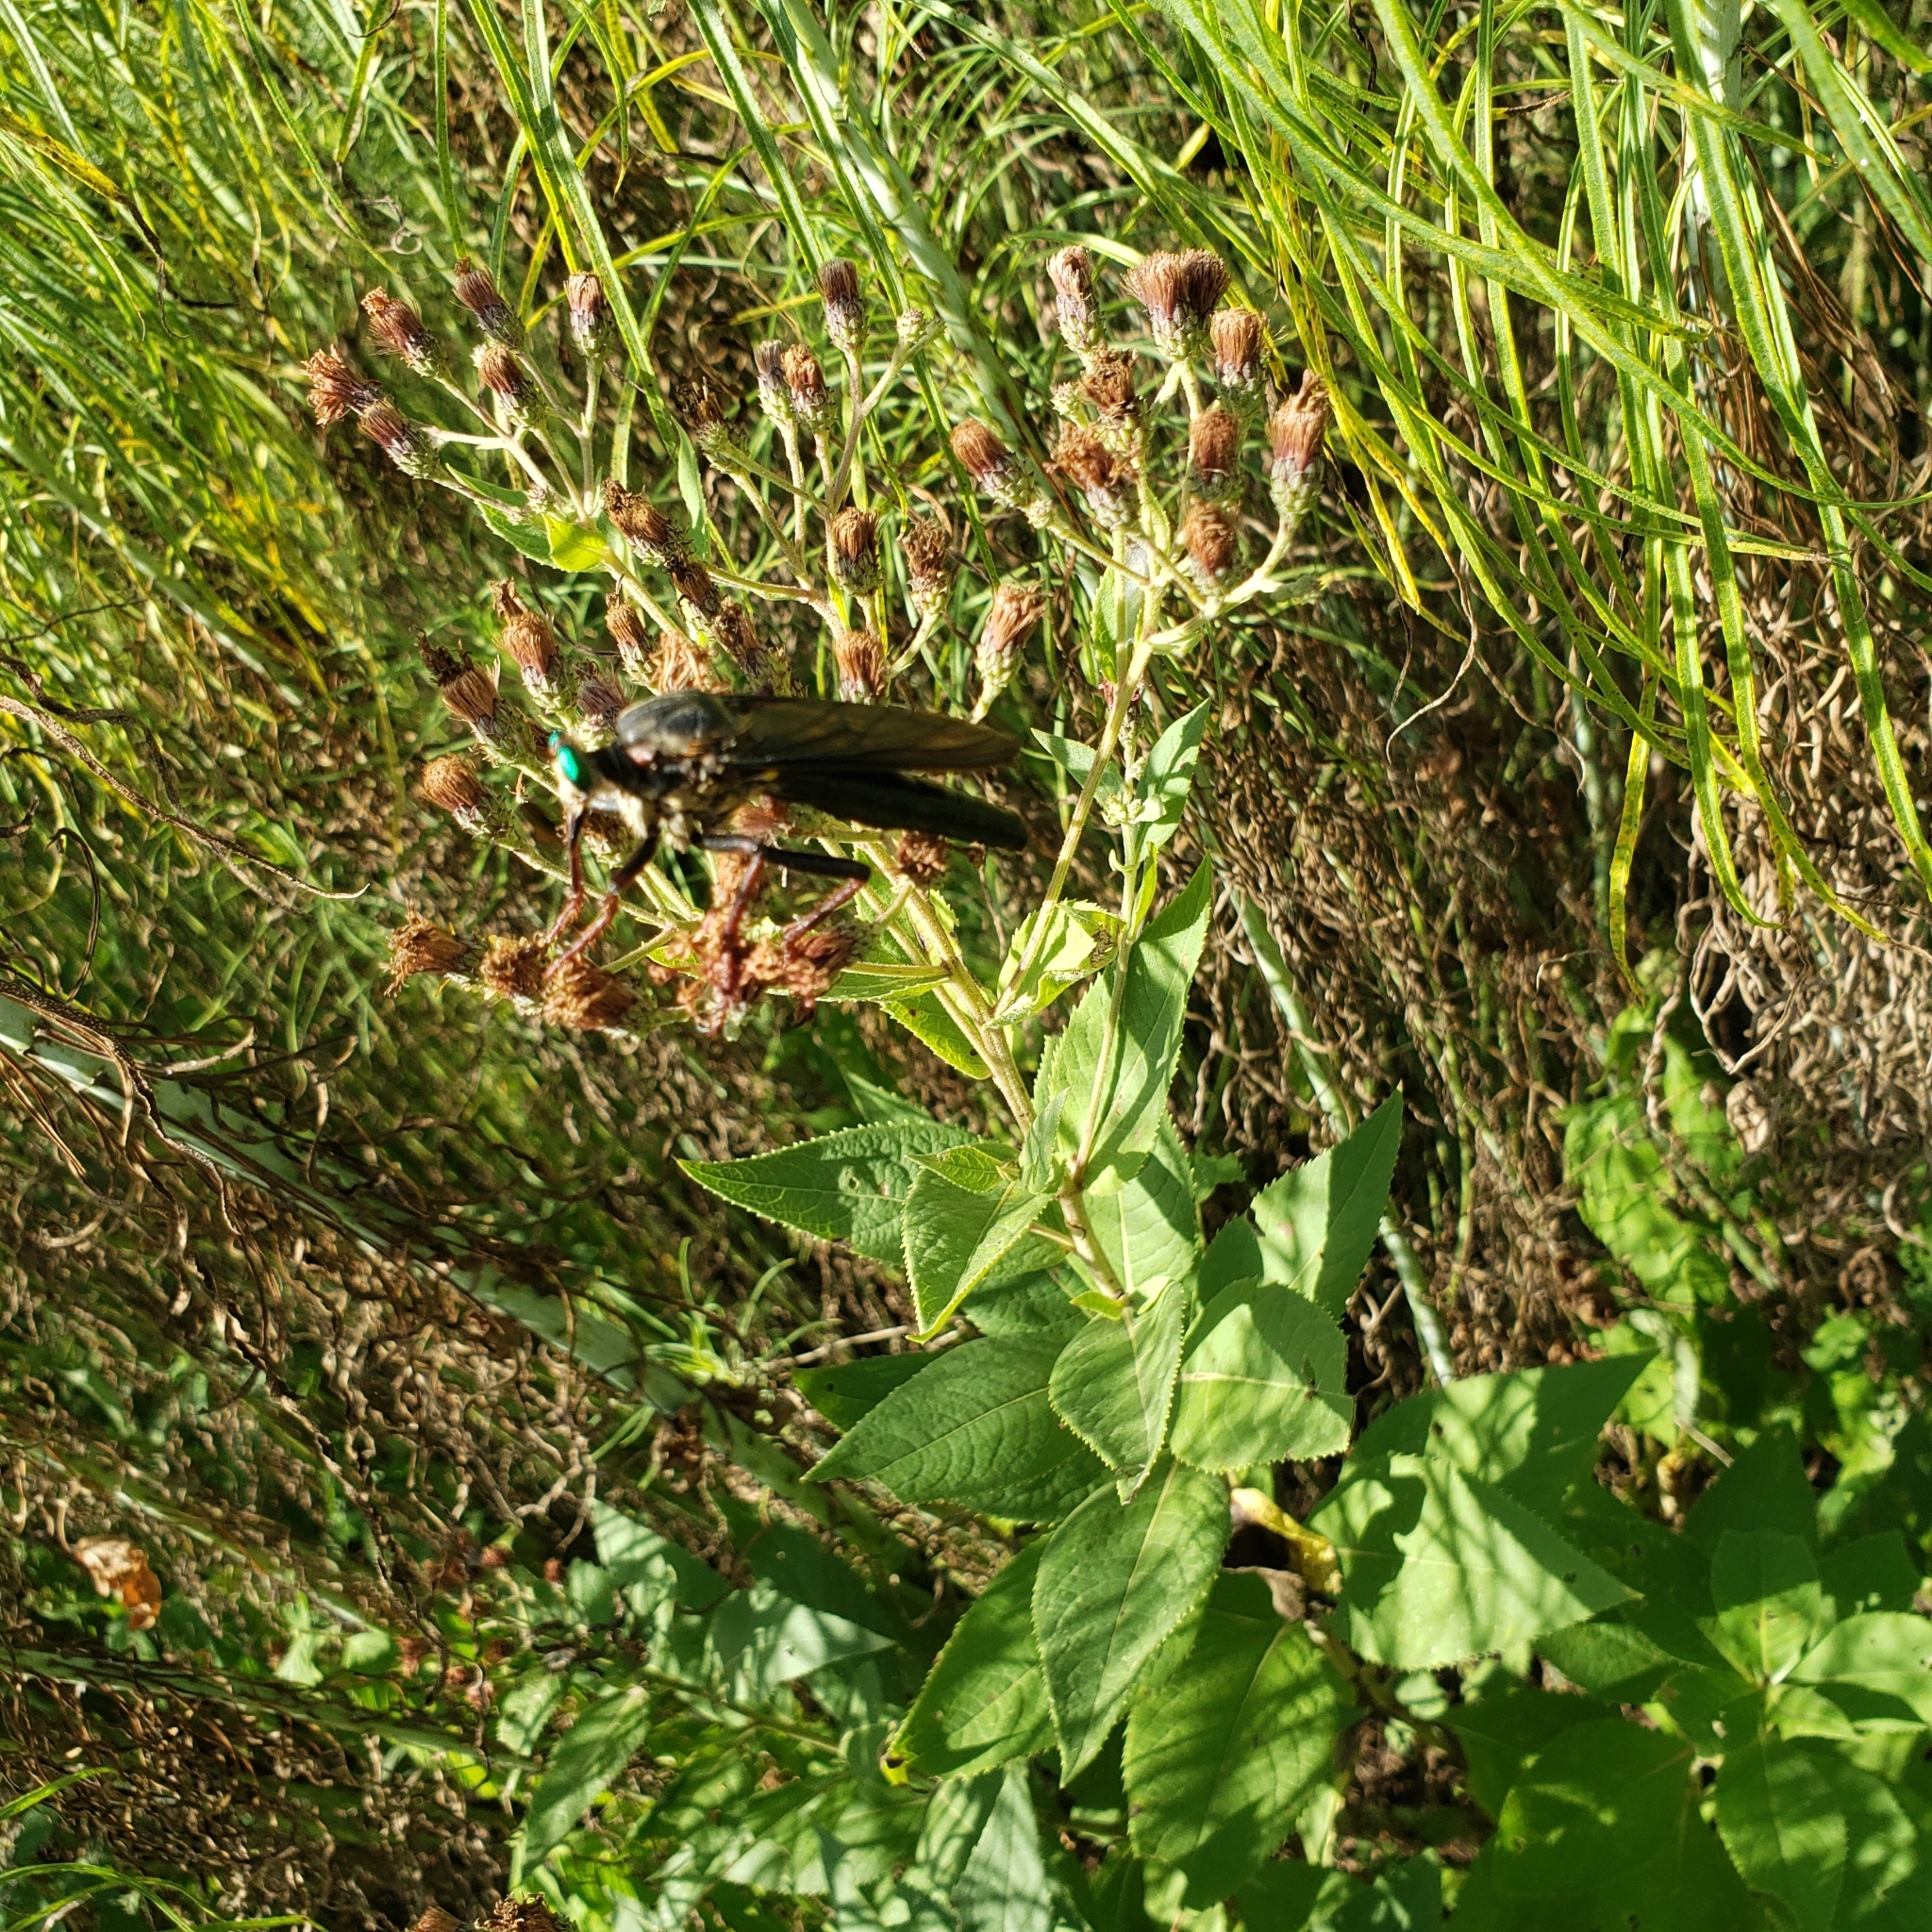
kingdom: Animalia
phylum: Arthropoda
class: Insecta
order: Diptera
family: Asilidae
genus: Microstylum
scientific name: Microstylum morosum
